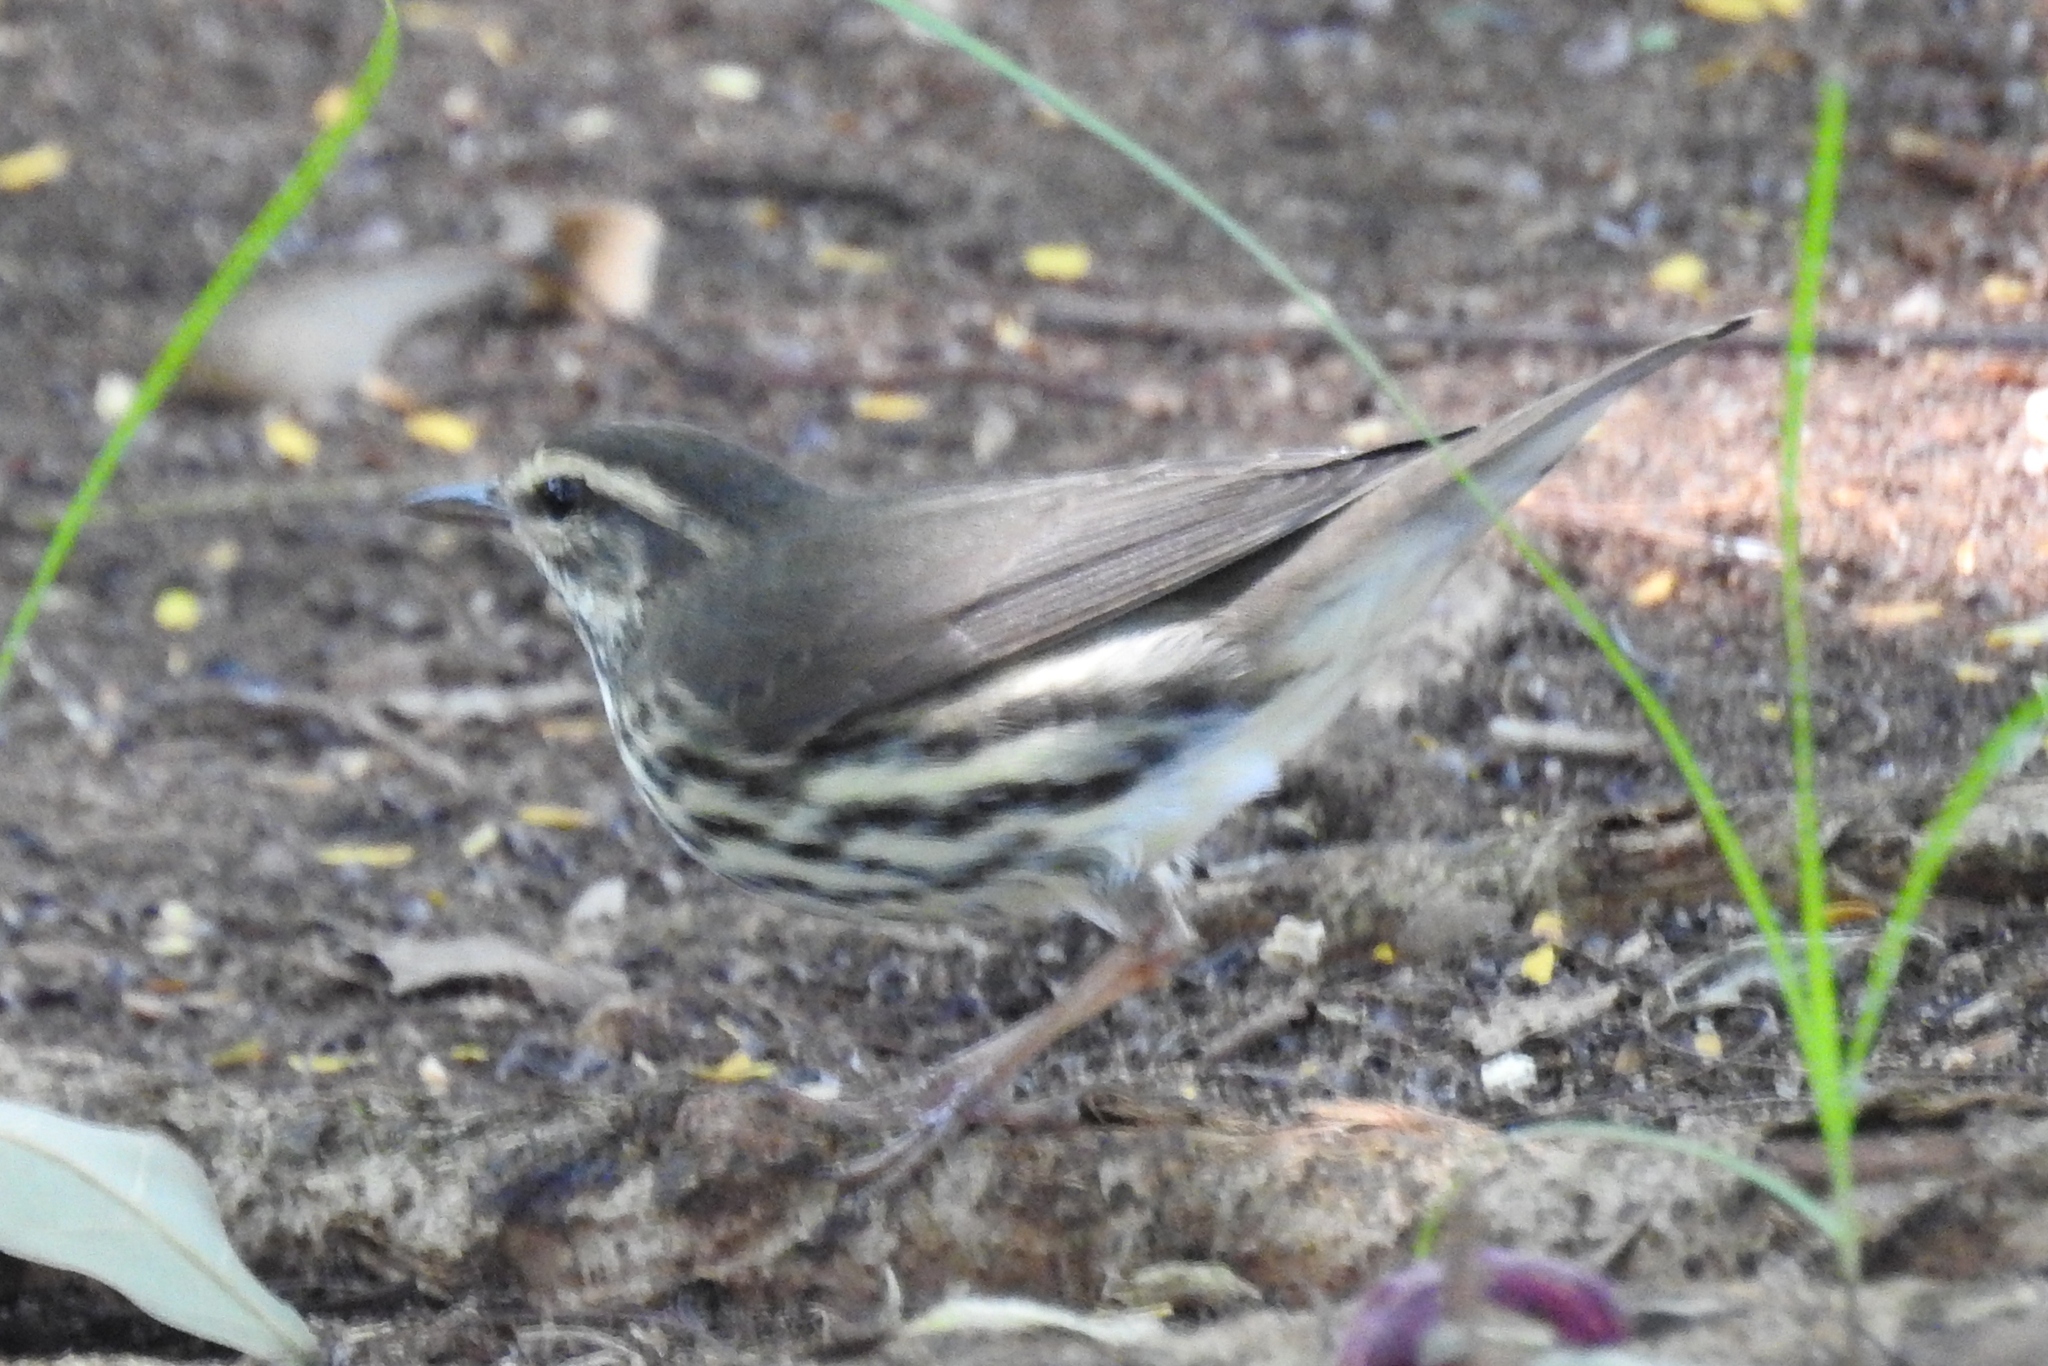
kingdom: Animalia
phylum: Chordata
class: Aves
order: Passeriformes
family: Parulidae
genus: Parkesia
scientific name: Parkesia noveboracensis
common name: Northern waterthrush
